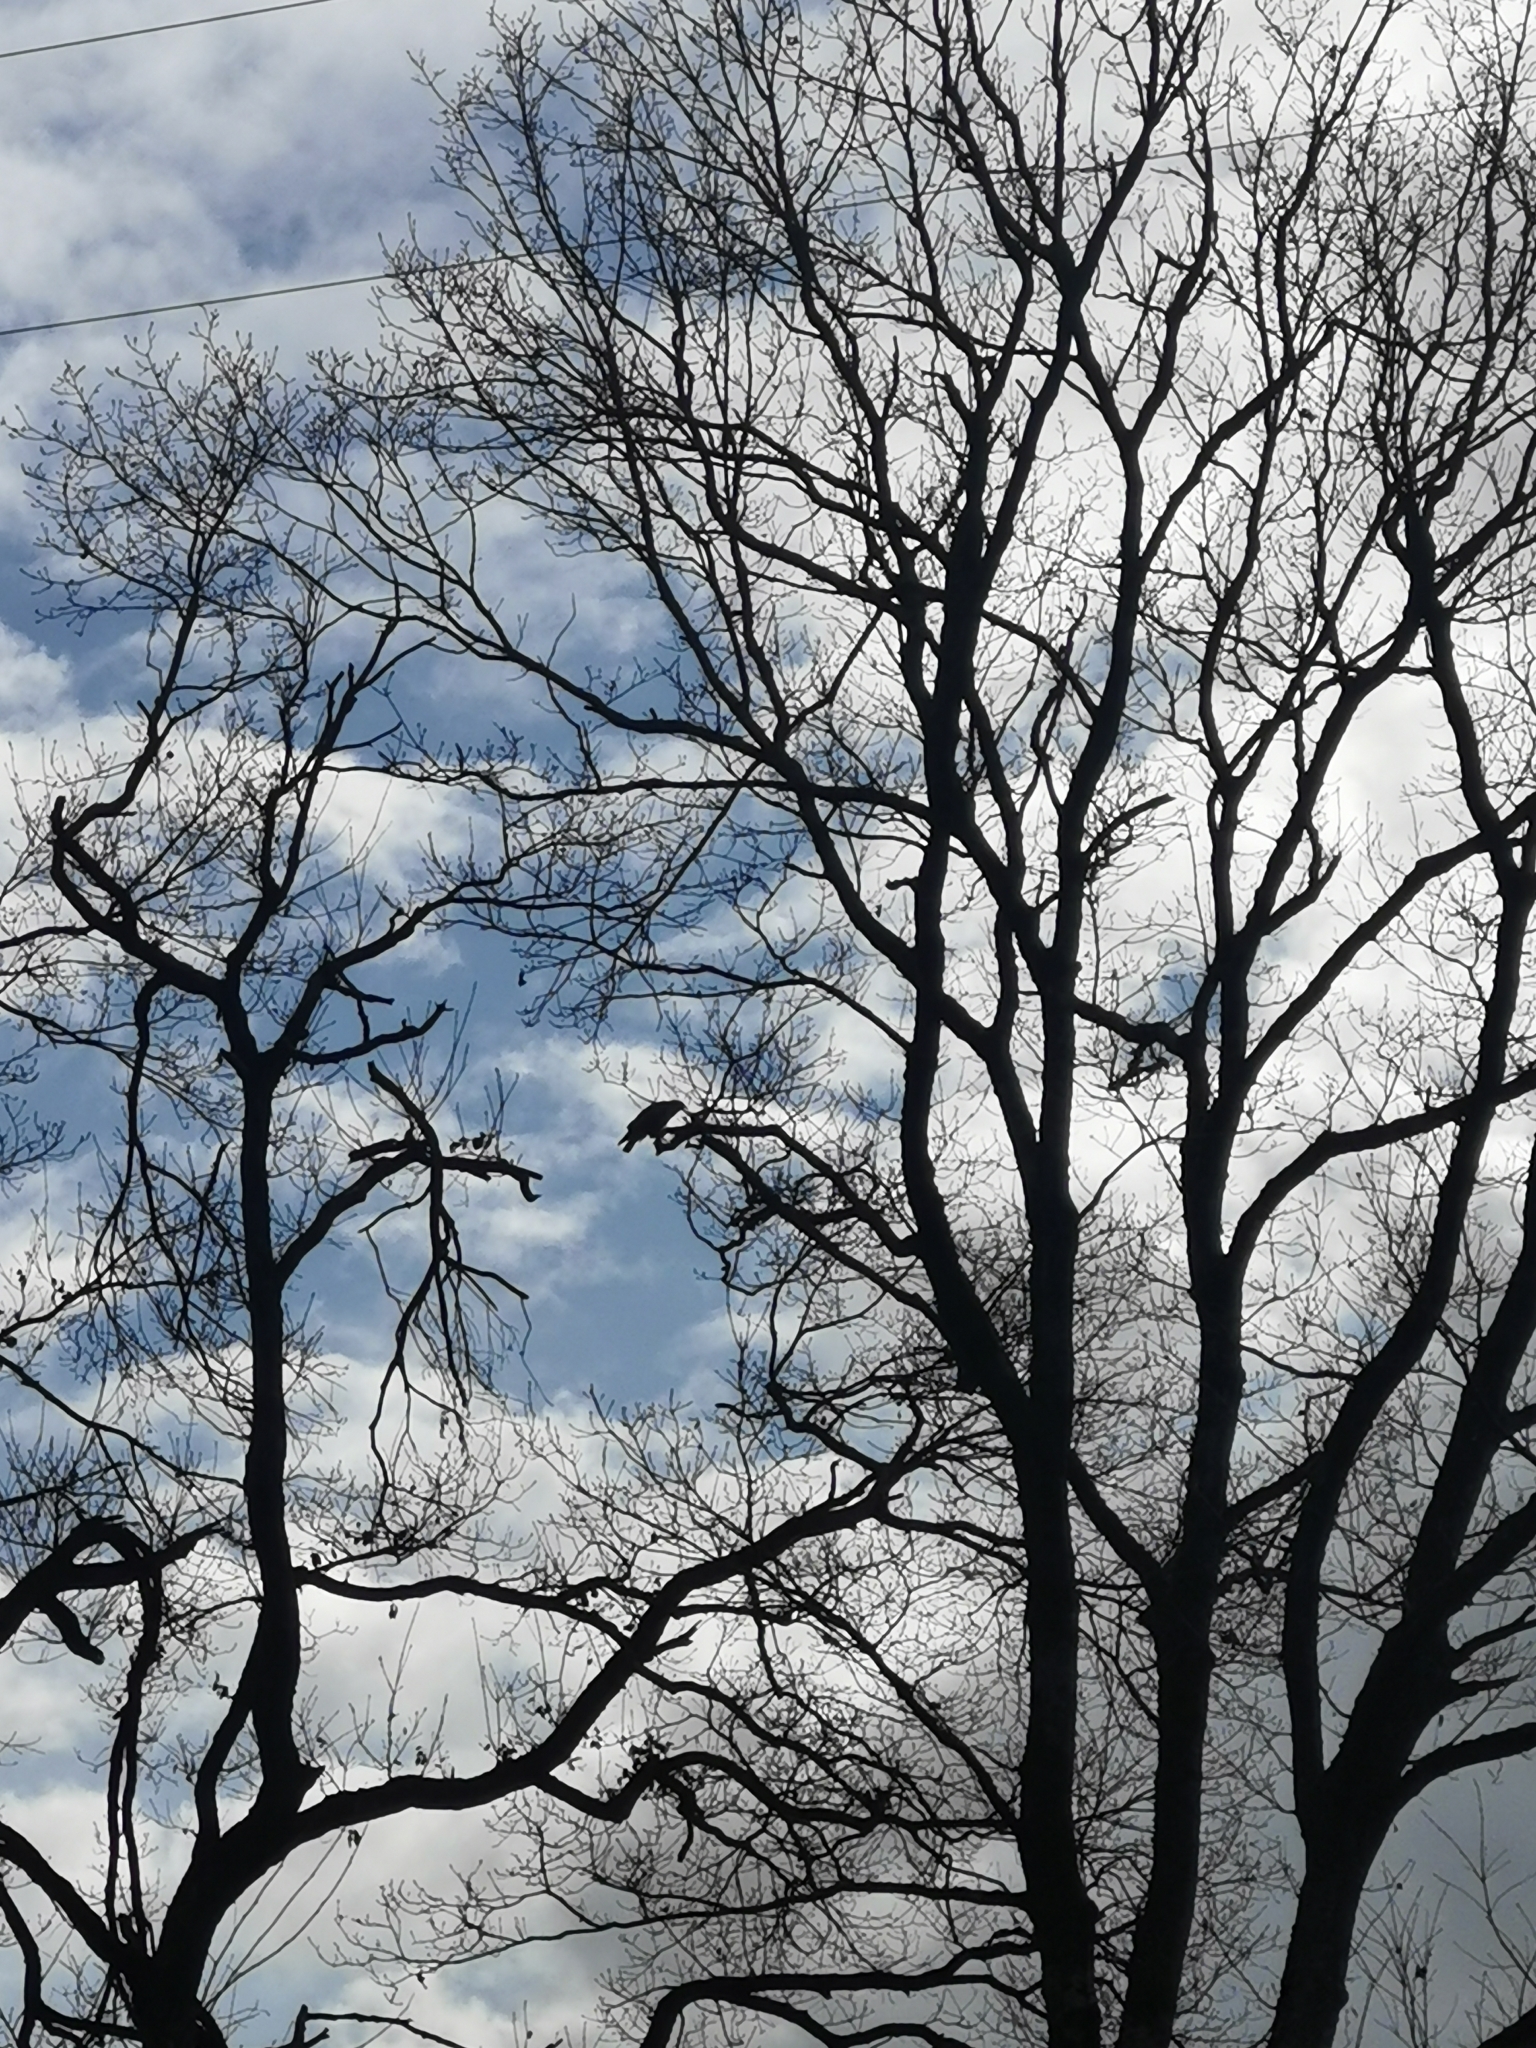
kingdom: Animalia
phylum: Chordata
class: Aves
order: Accipitriformes
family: Accipitridae
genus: Buteo
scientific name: Buteo buteo
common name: Common buzzard
